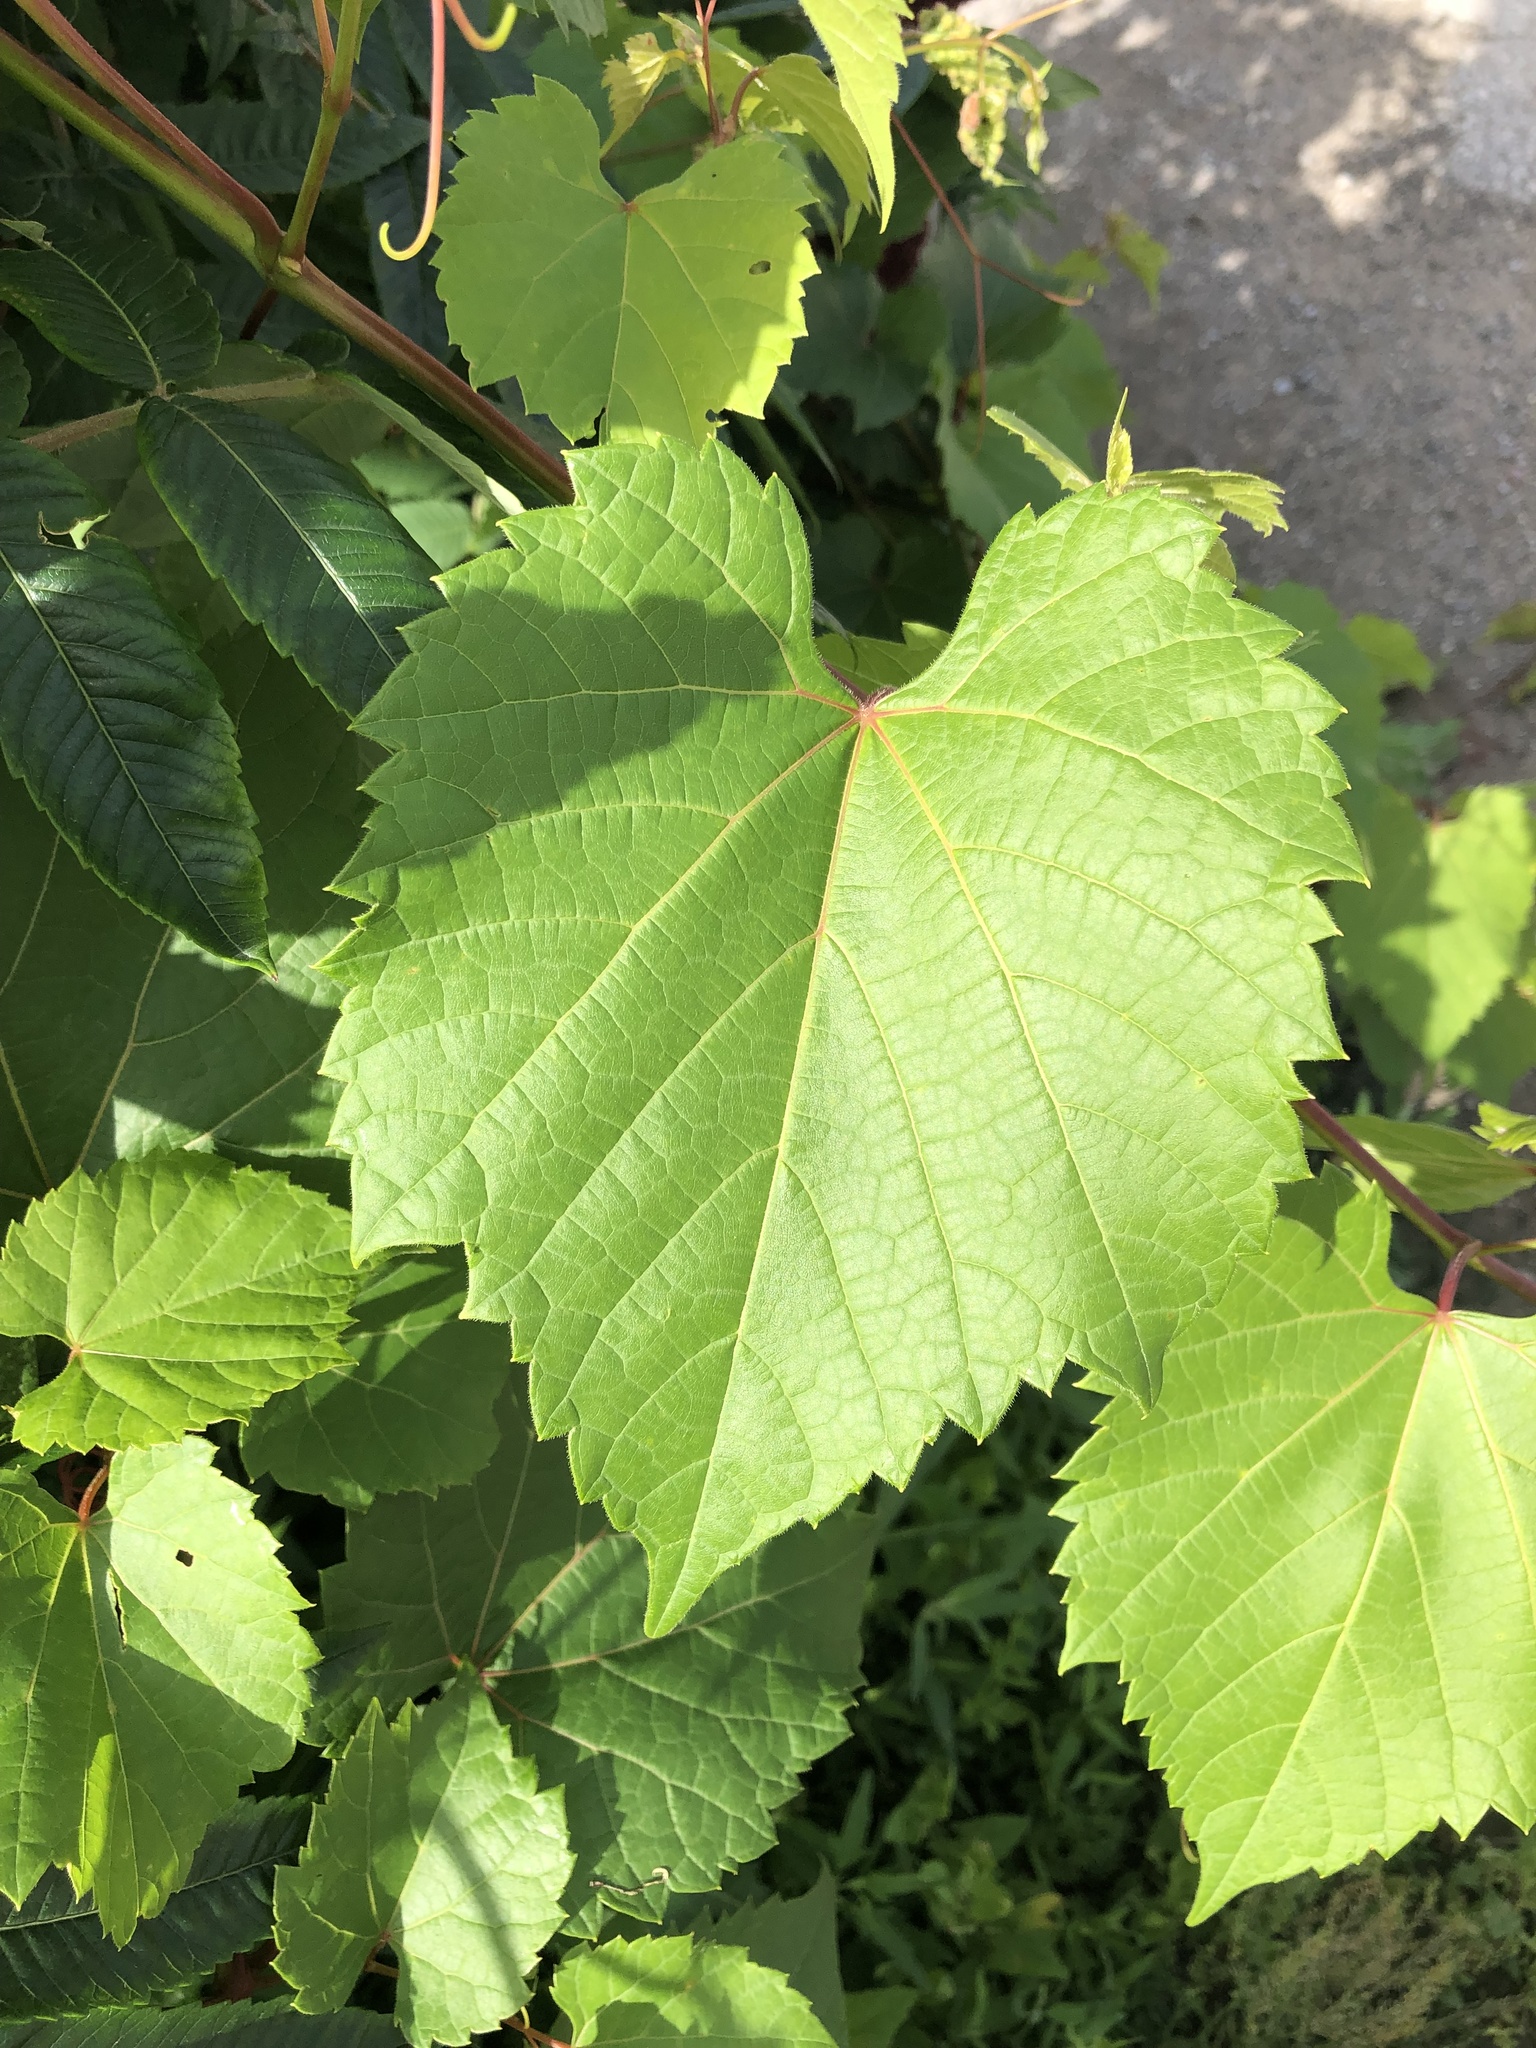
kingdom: Plantae
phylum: Tracheophyta
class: Magnoliopsida
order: Vitales
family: Vitaceae
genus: Vitis
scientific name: Vitis riparia
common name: Frost grape
